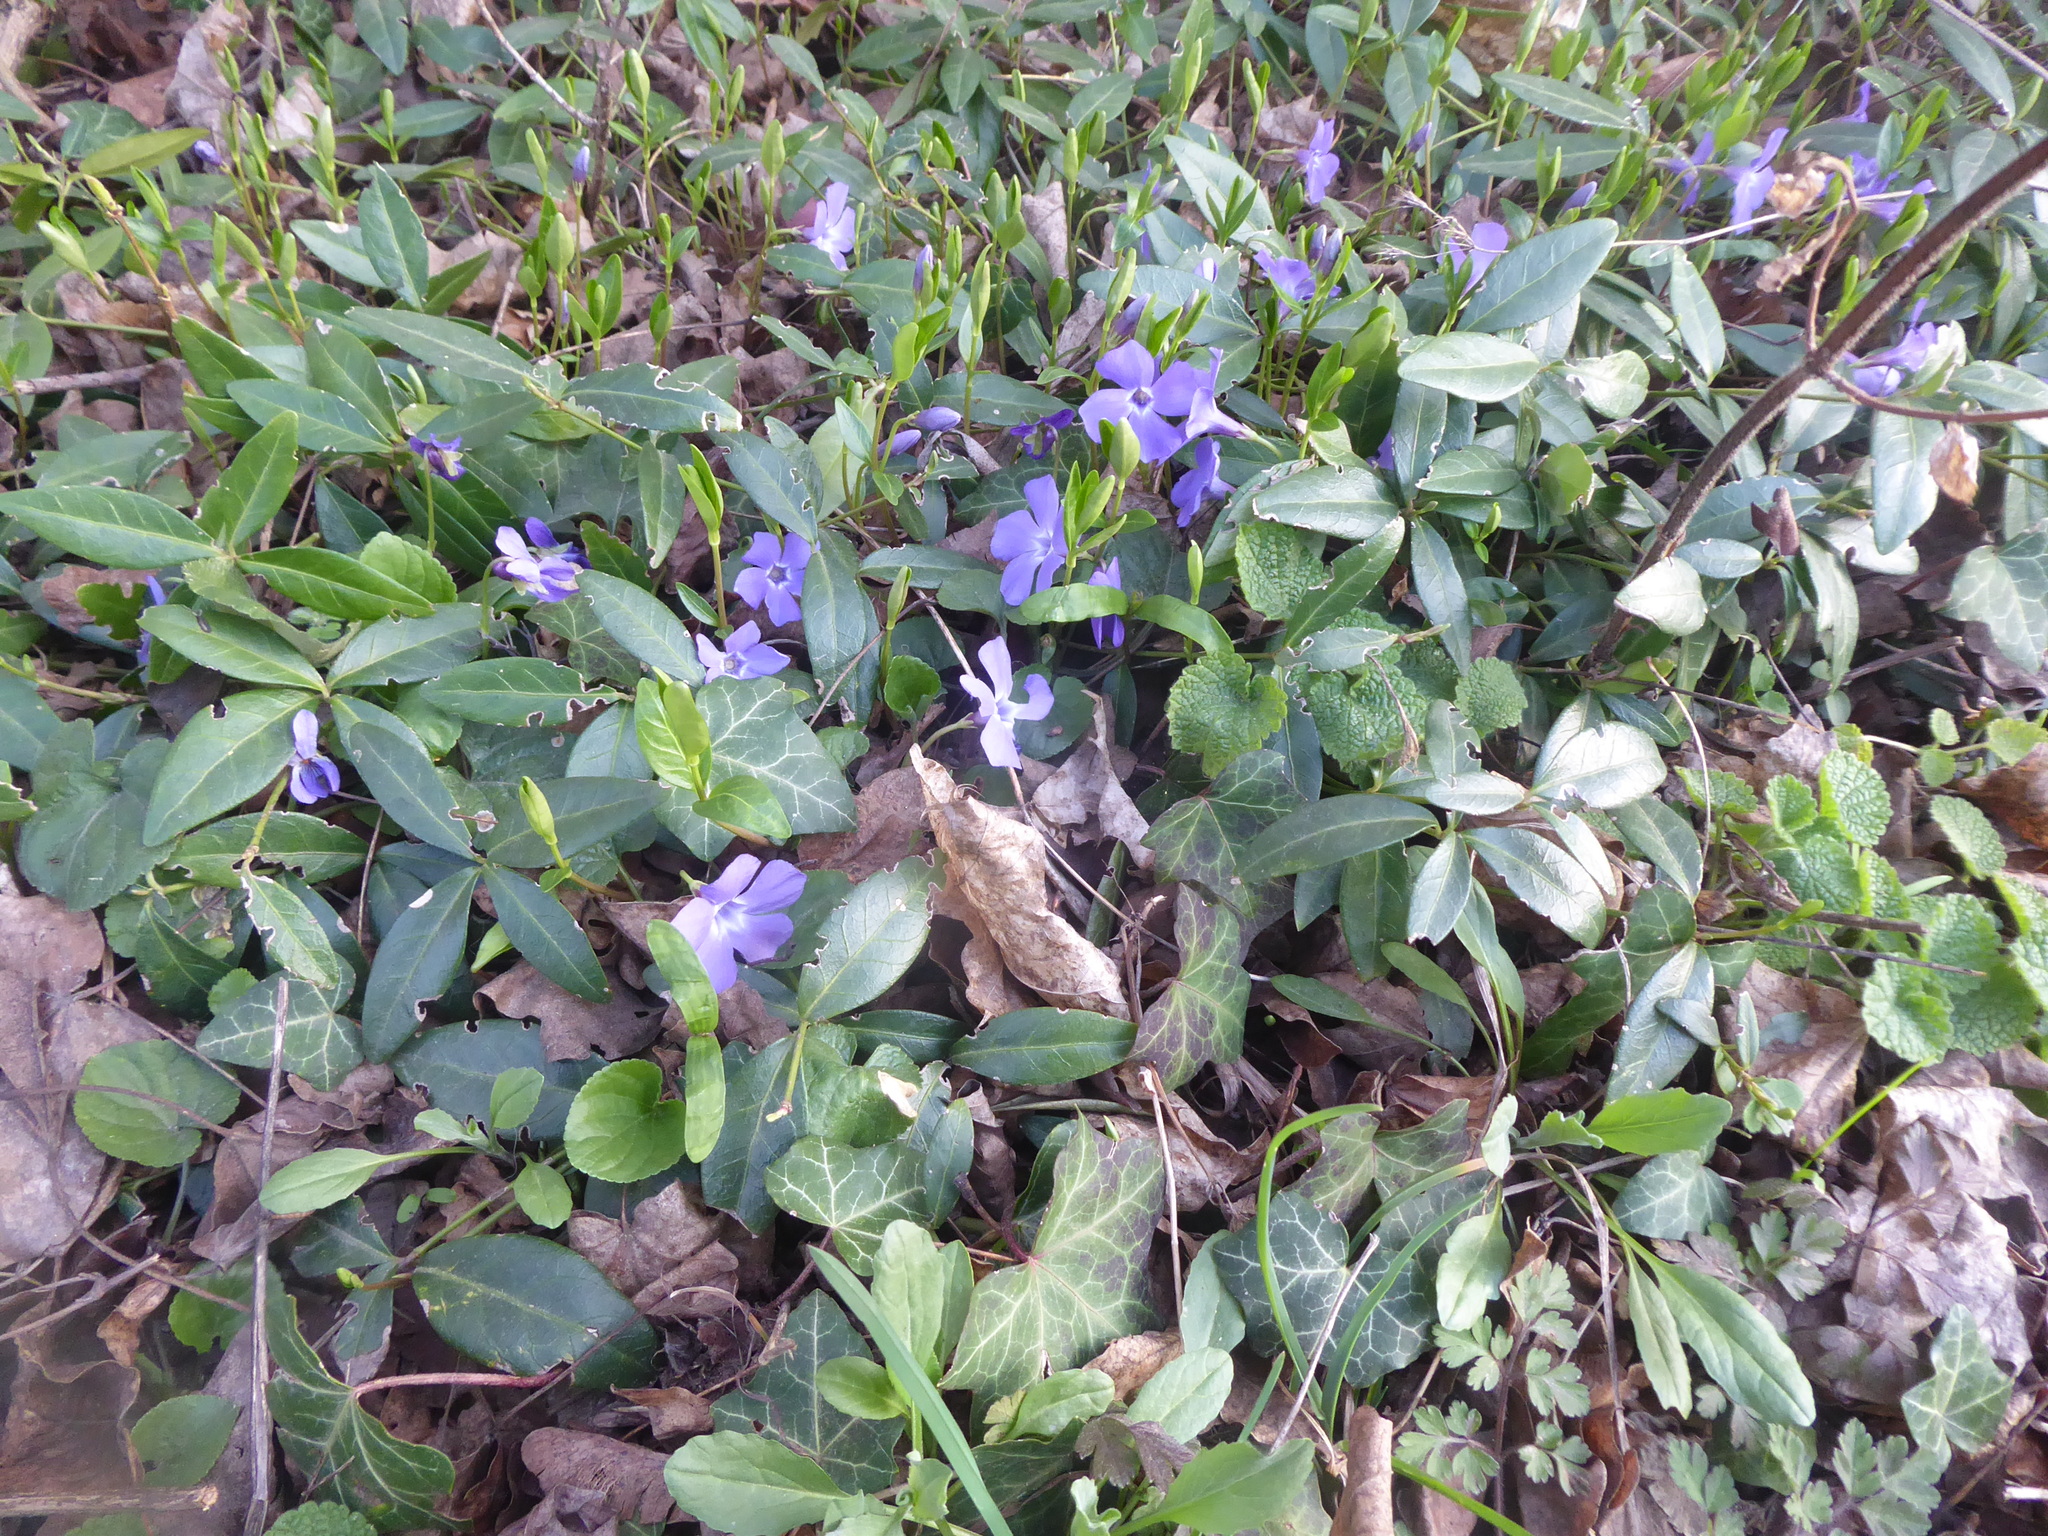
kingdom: Plantae
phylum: Tracheophyta
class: Magnoliopsida
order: Gentianales
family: Apocynaceae
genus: Vinca
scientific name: Vinca minor
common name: Lesser periwinkle
